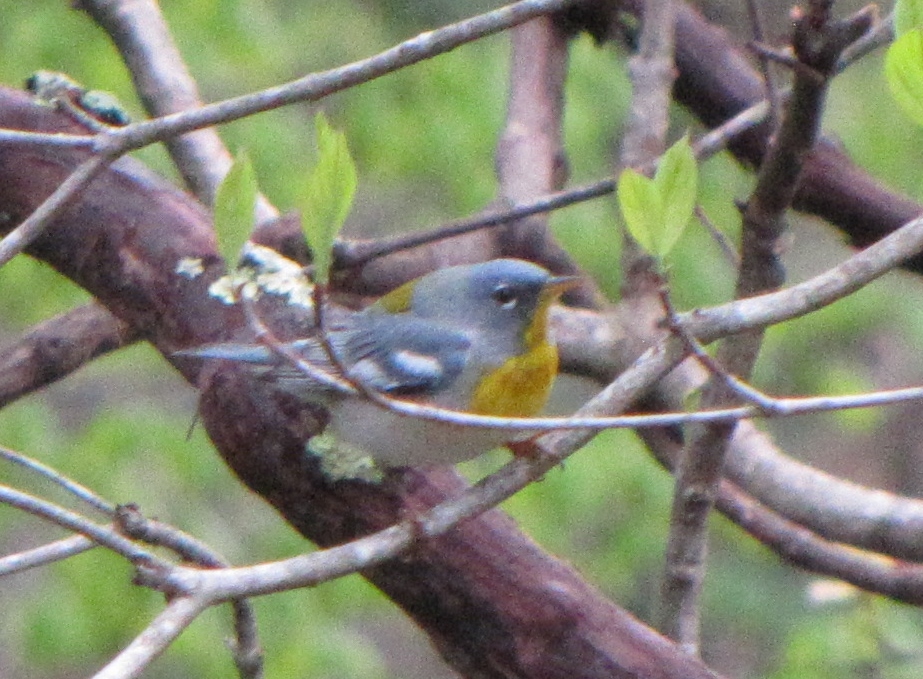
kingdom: Animalia
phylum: Chordata
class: Aves
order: Passeriformes
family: Parulidae
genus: Setophaga
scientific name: Setophaga americana
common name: Northern parula
